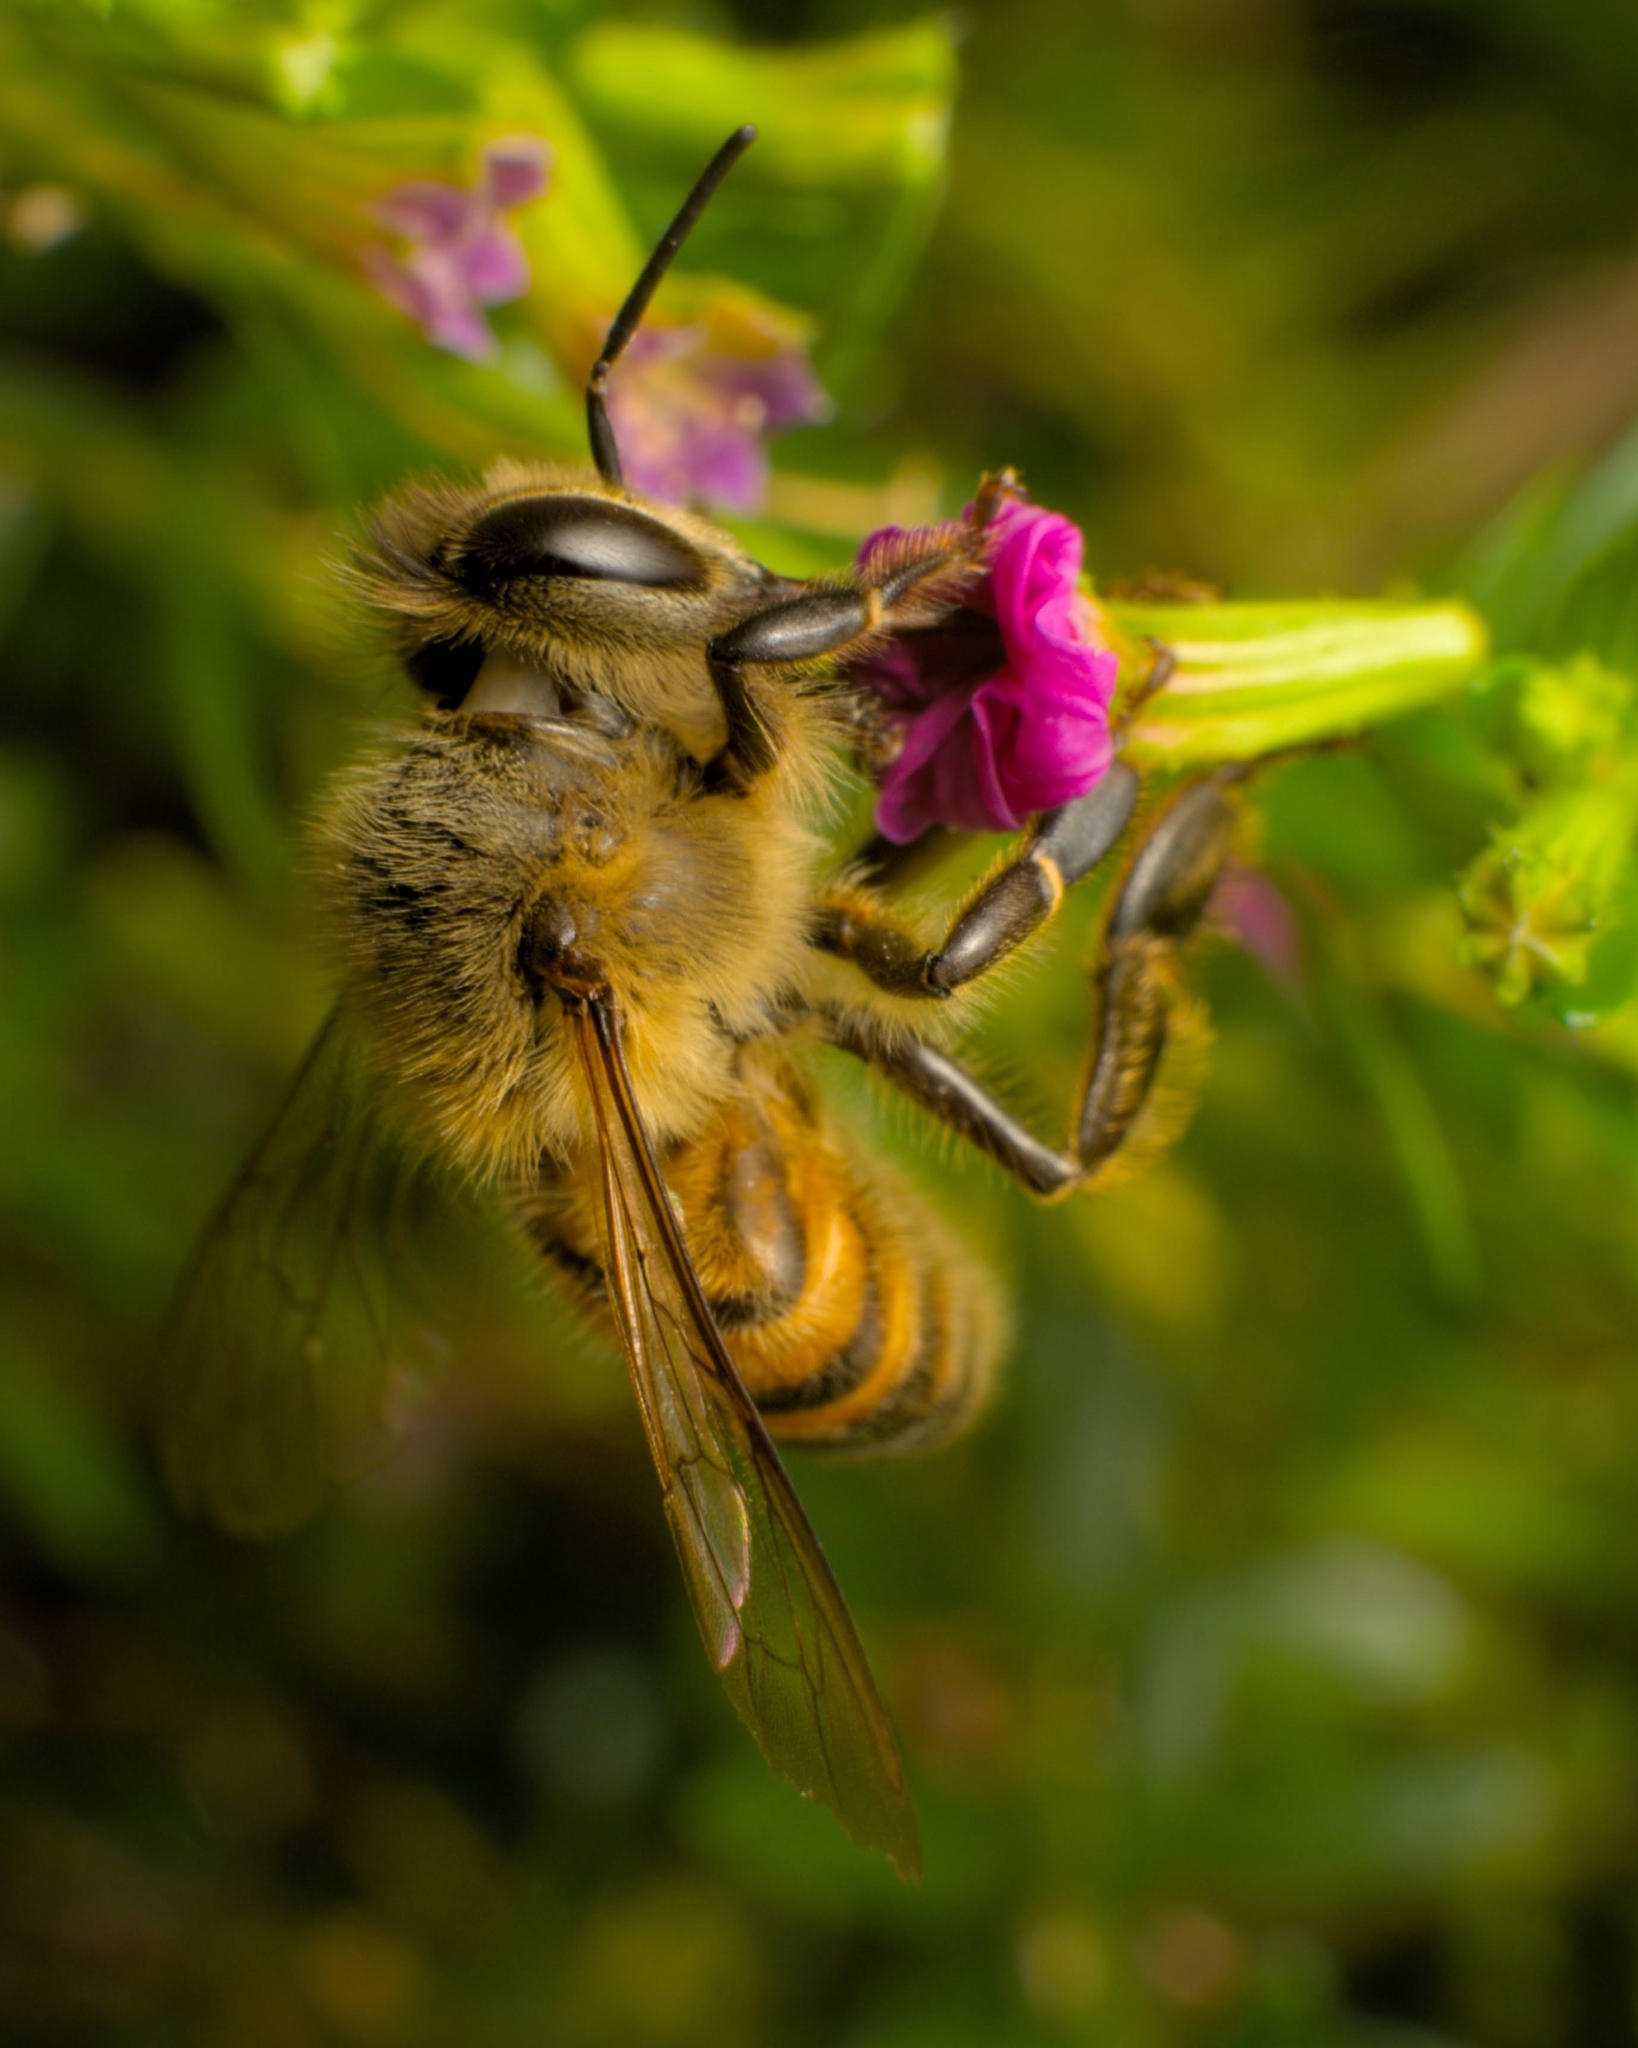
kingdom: Animalia
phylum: Arthropoda
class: Insecta
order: Hymenoptera
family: Apidae
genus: Apis
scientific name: Apis mellifera
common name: Honey bee
